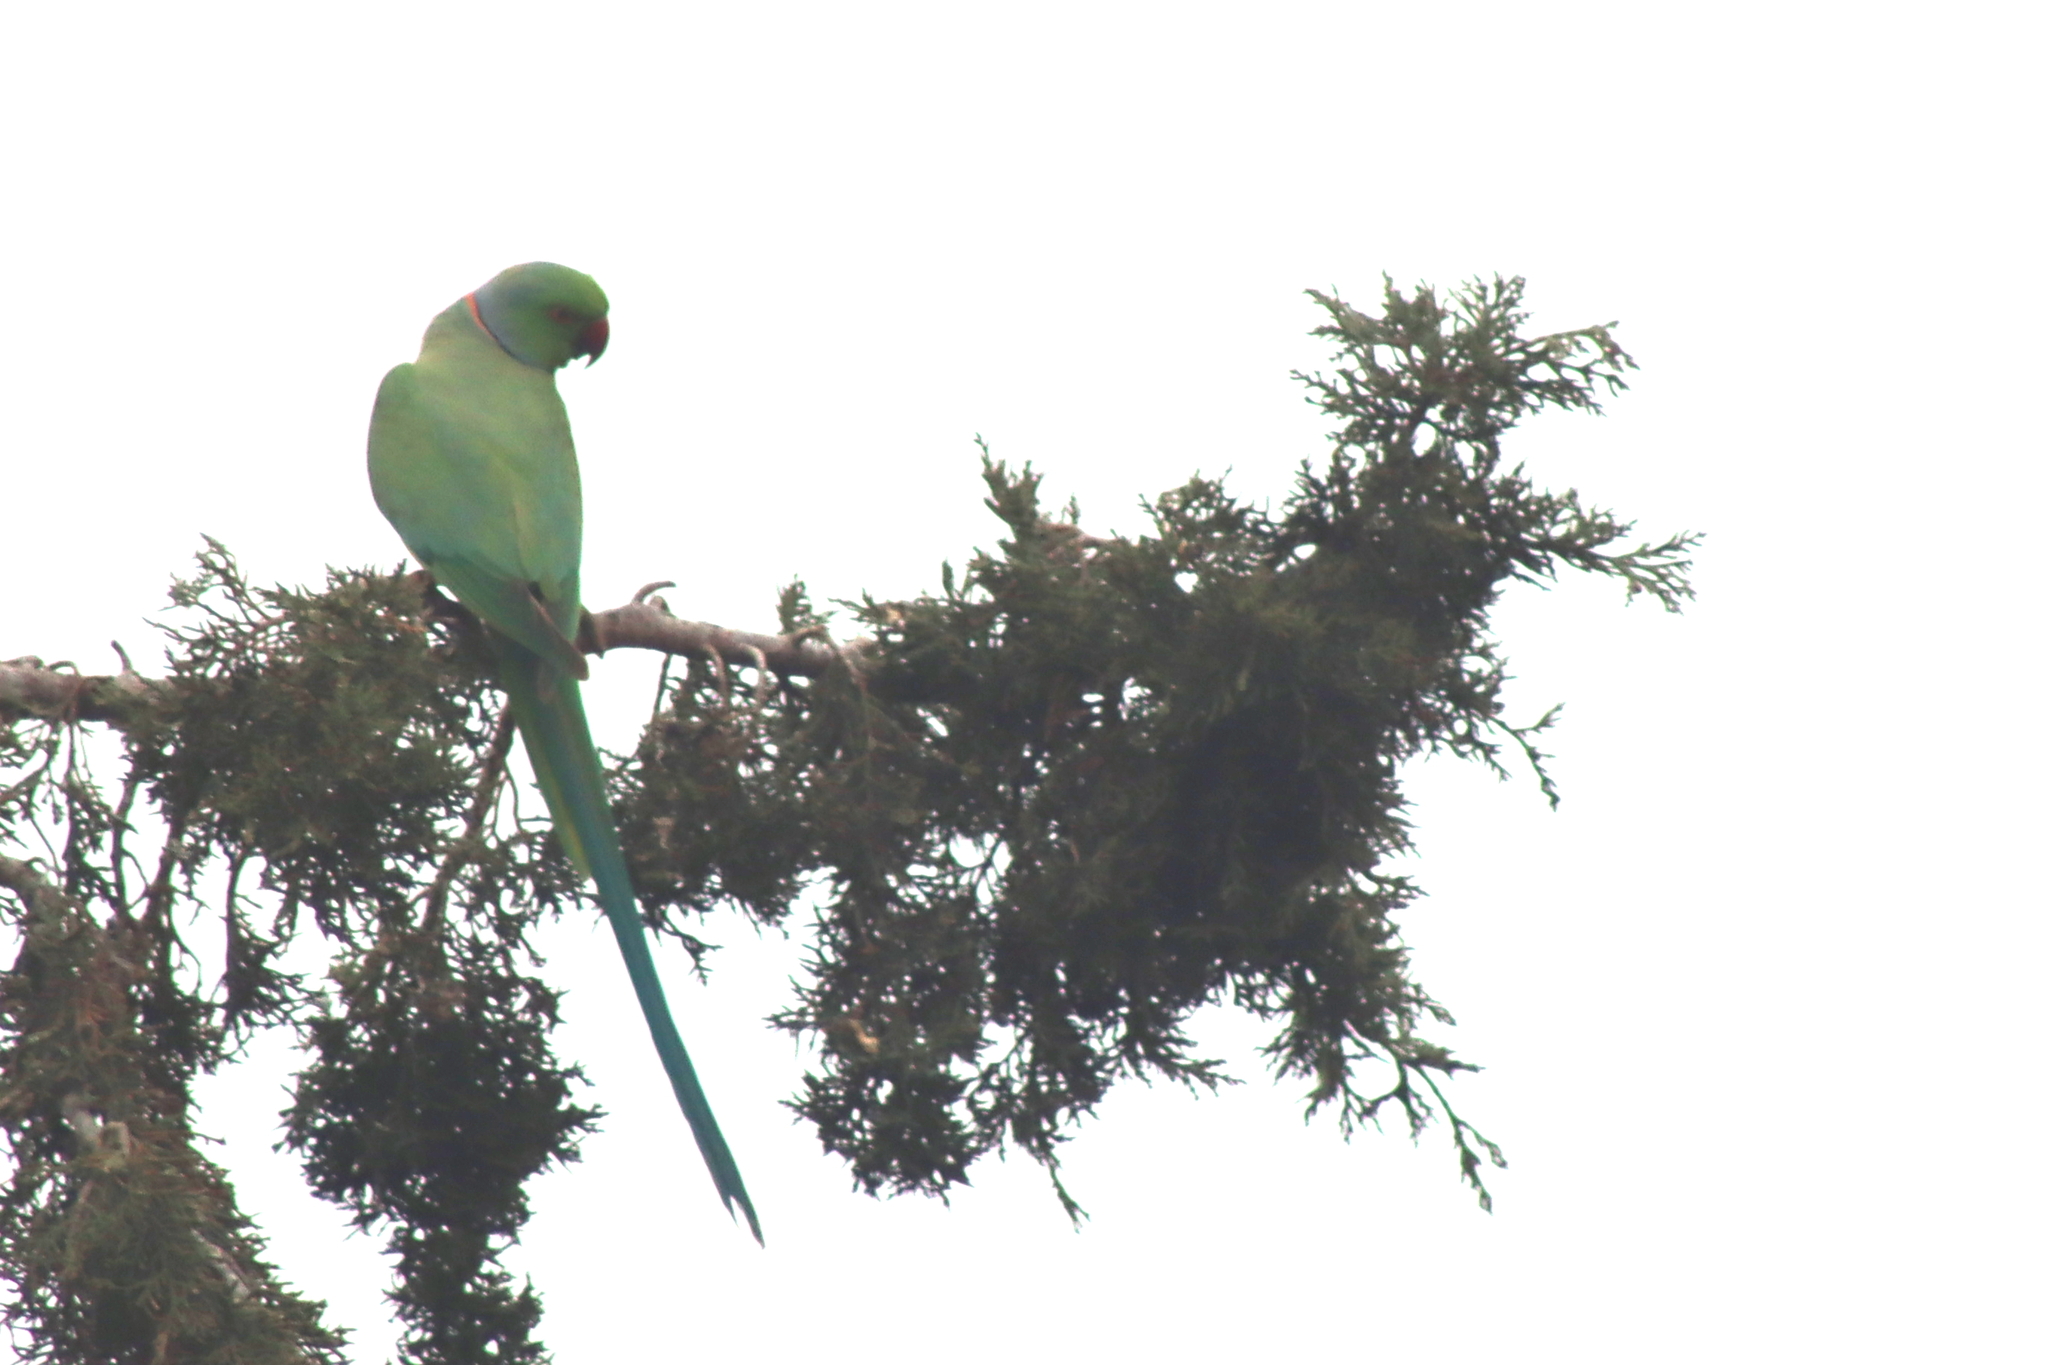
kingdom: Animalia
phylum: Chordata
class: Aves
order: Psittaciformes
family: Psittacidae
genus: Psittacula
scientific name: Psittacula krameri
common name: Rose-ringed parakeet
